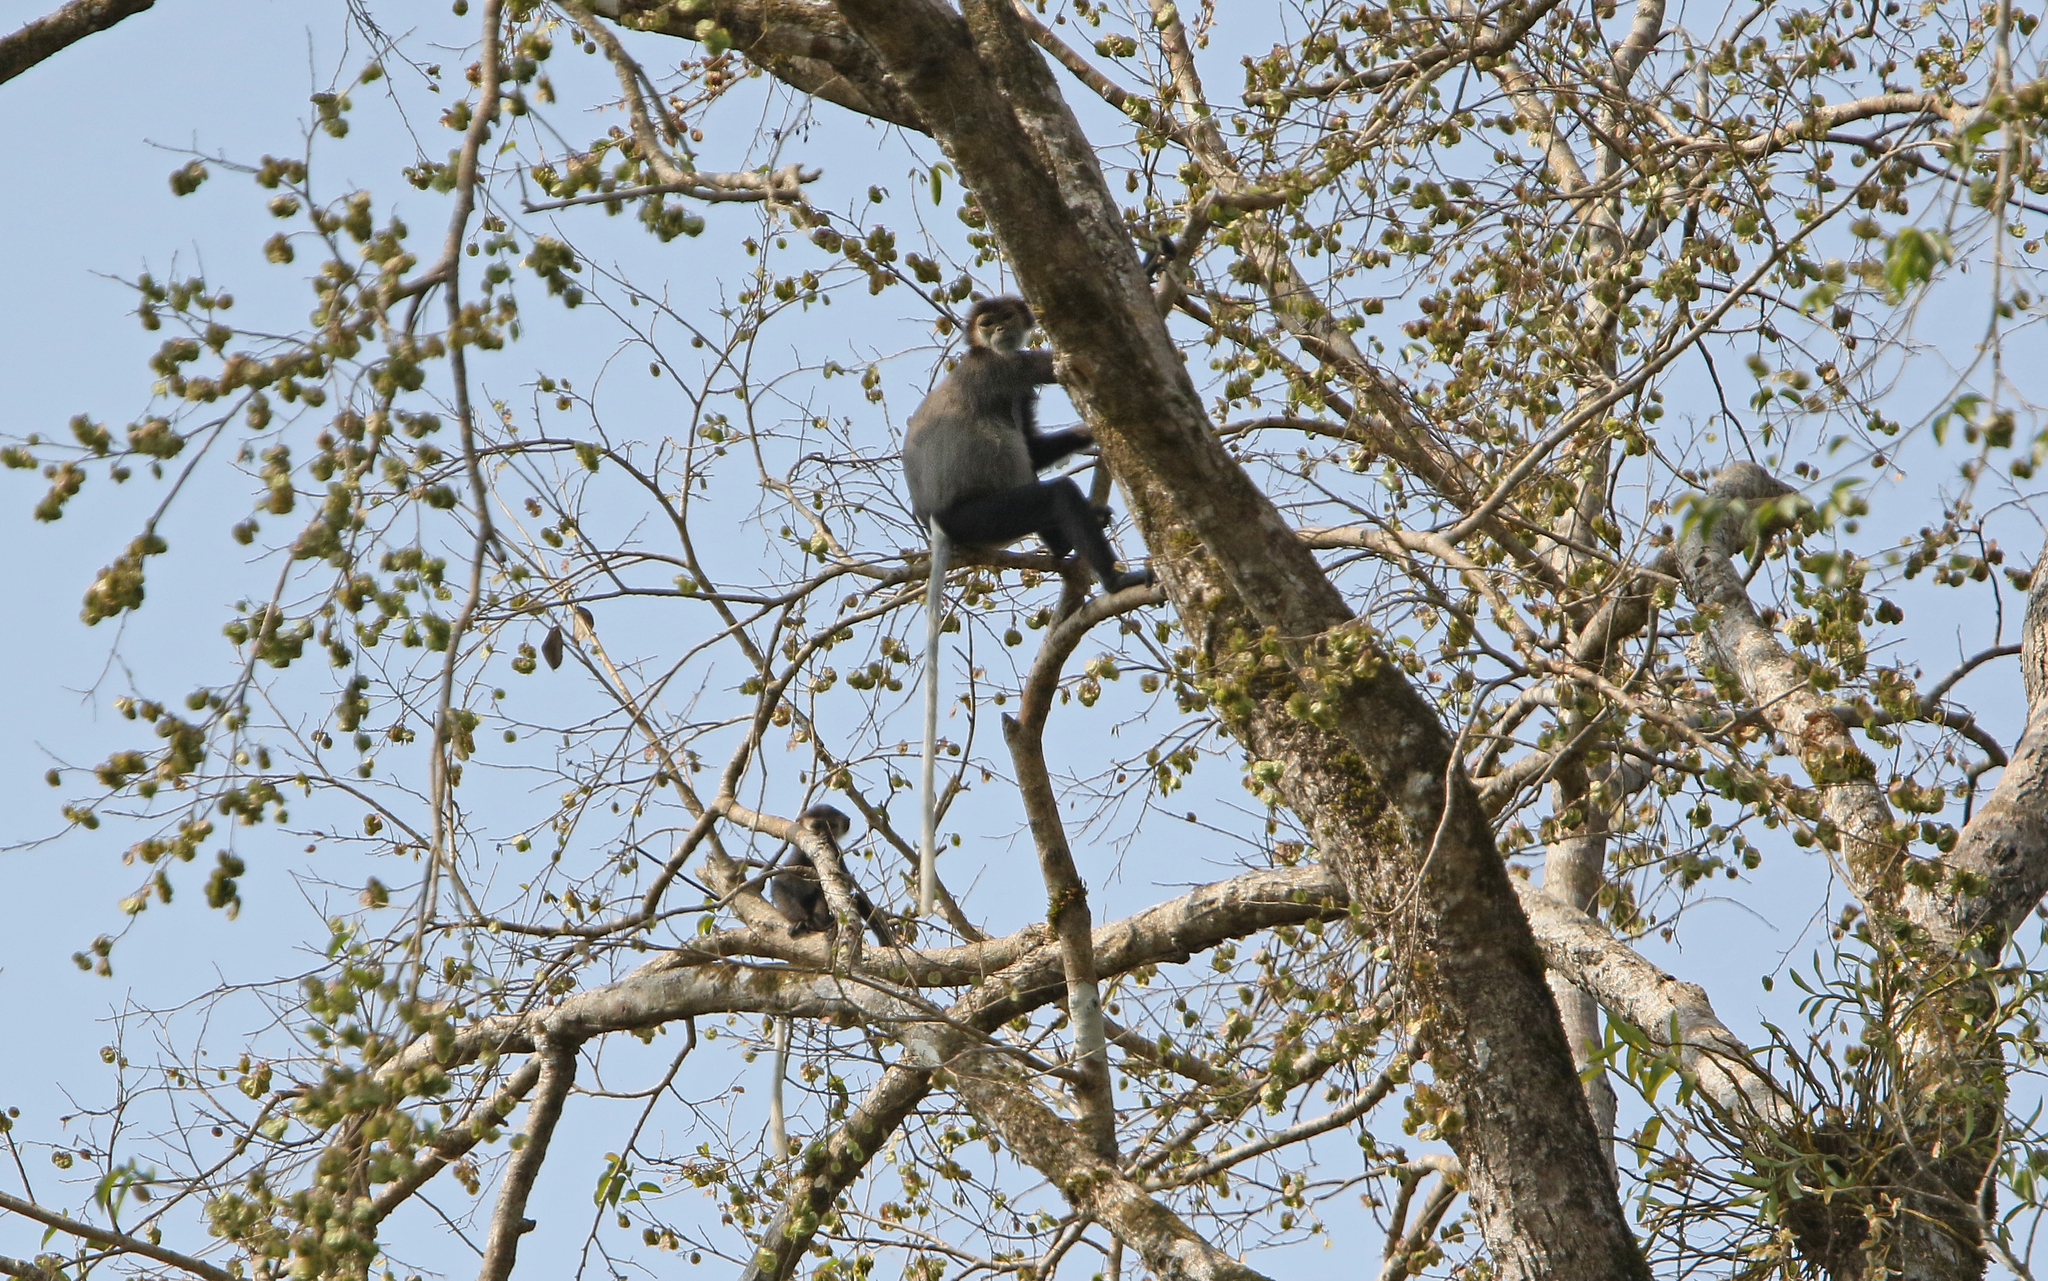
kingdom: Animalia
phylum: Chordata
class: Mammalia
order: Primates
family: Cercopithecidae
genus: Pygathrix
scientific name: Pygathrix nigripes
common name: Black-shanked douc
